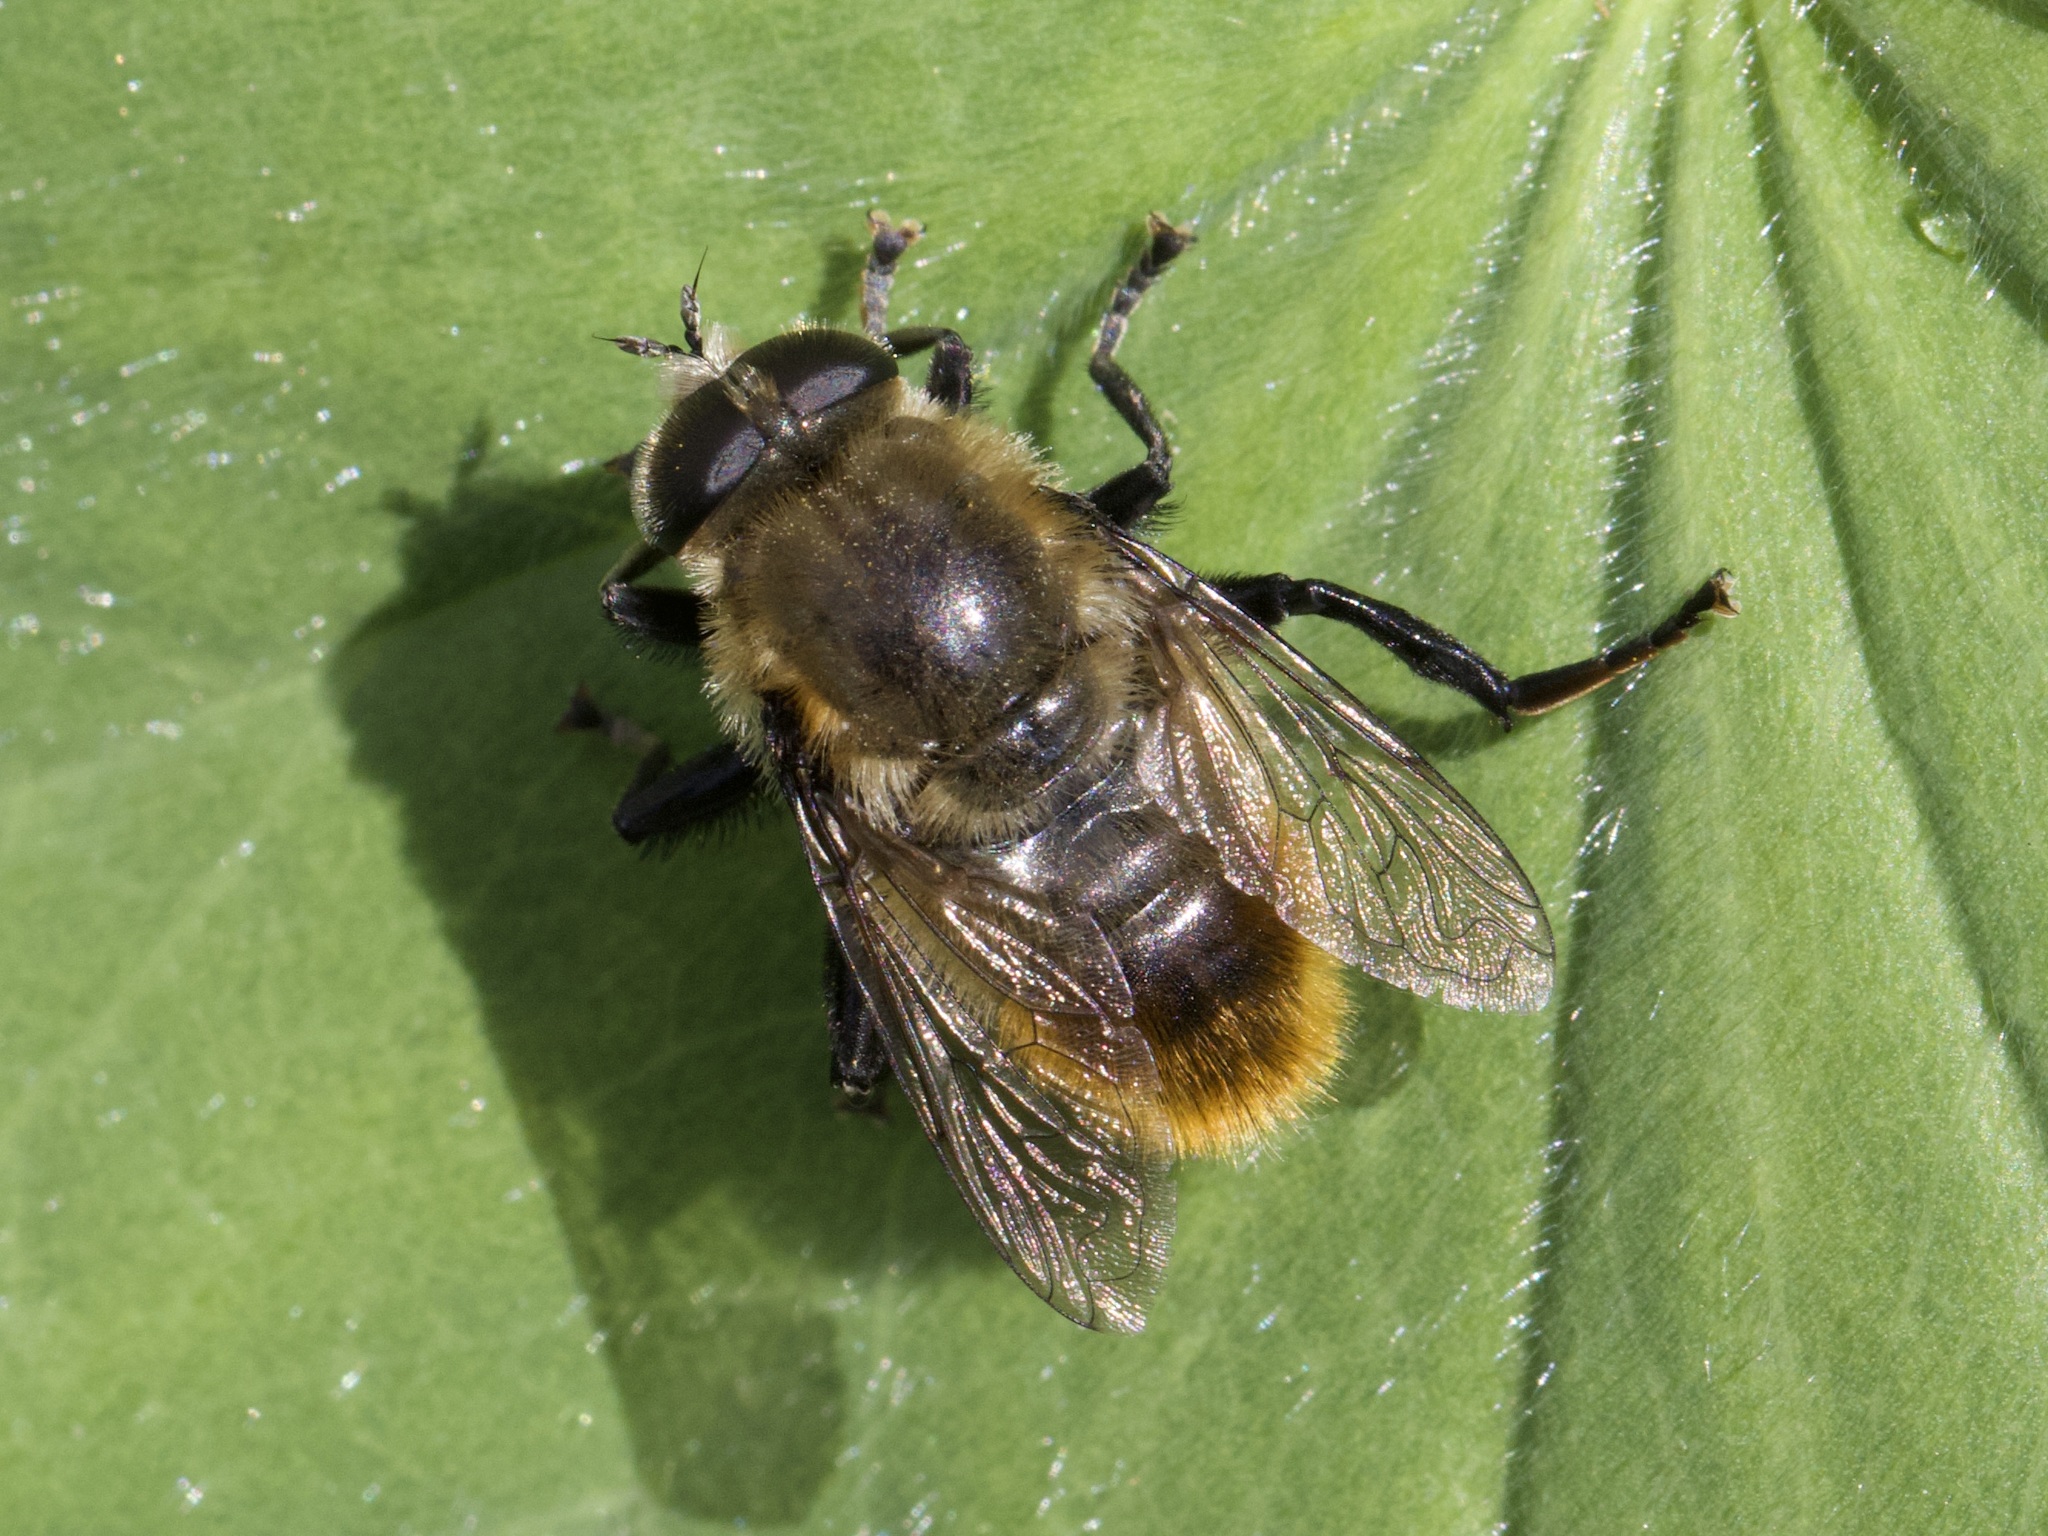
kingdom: Animalia
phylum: Arthropoda
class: Insecta
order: Diptera
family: Syrphidae
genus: Merodon
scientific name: Merodon equestris
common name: Greater bulb-fly
